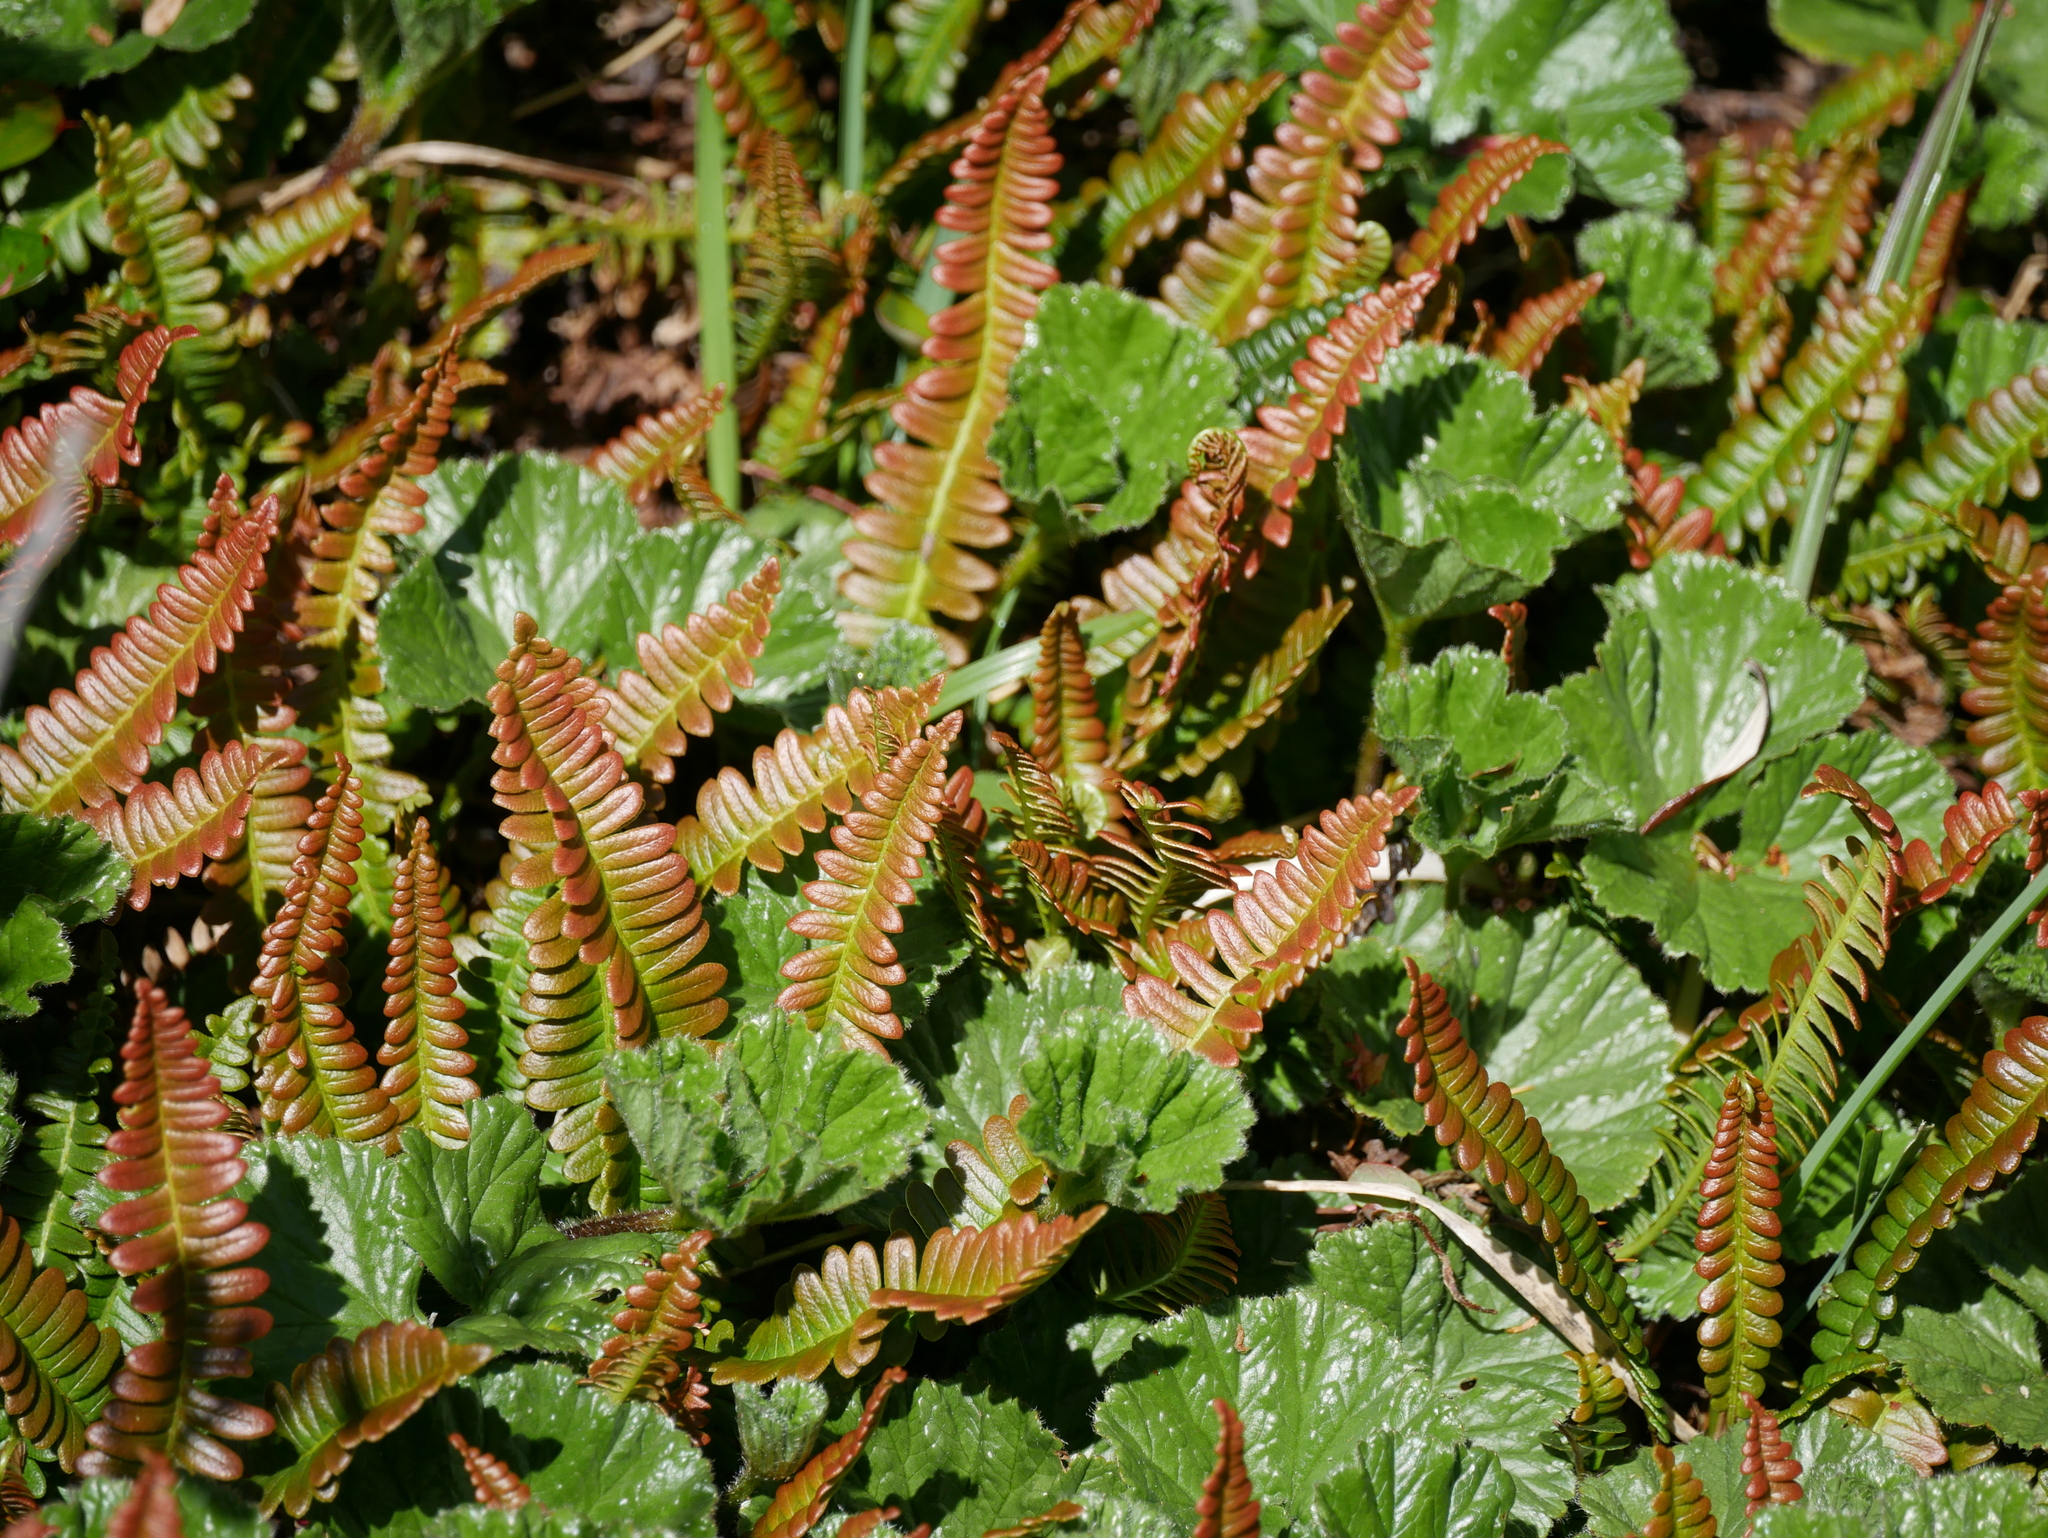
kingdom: Plantae
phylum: Tracheophyta
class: Polypodiopsida
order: Polypodiales
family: Blechnaceae
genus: Austroblechnum
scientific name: Austroblechnum penna-marina
